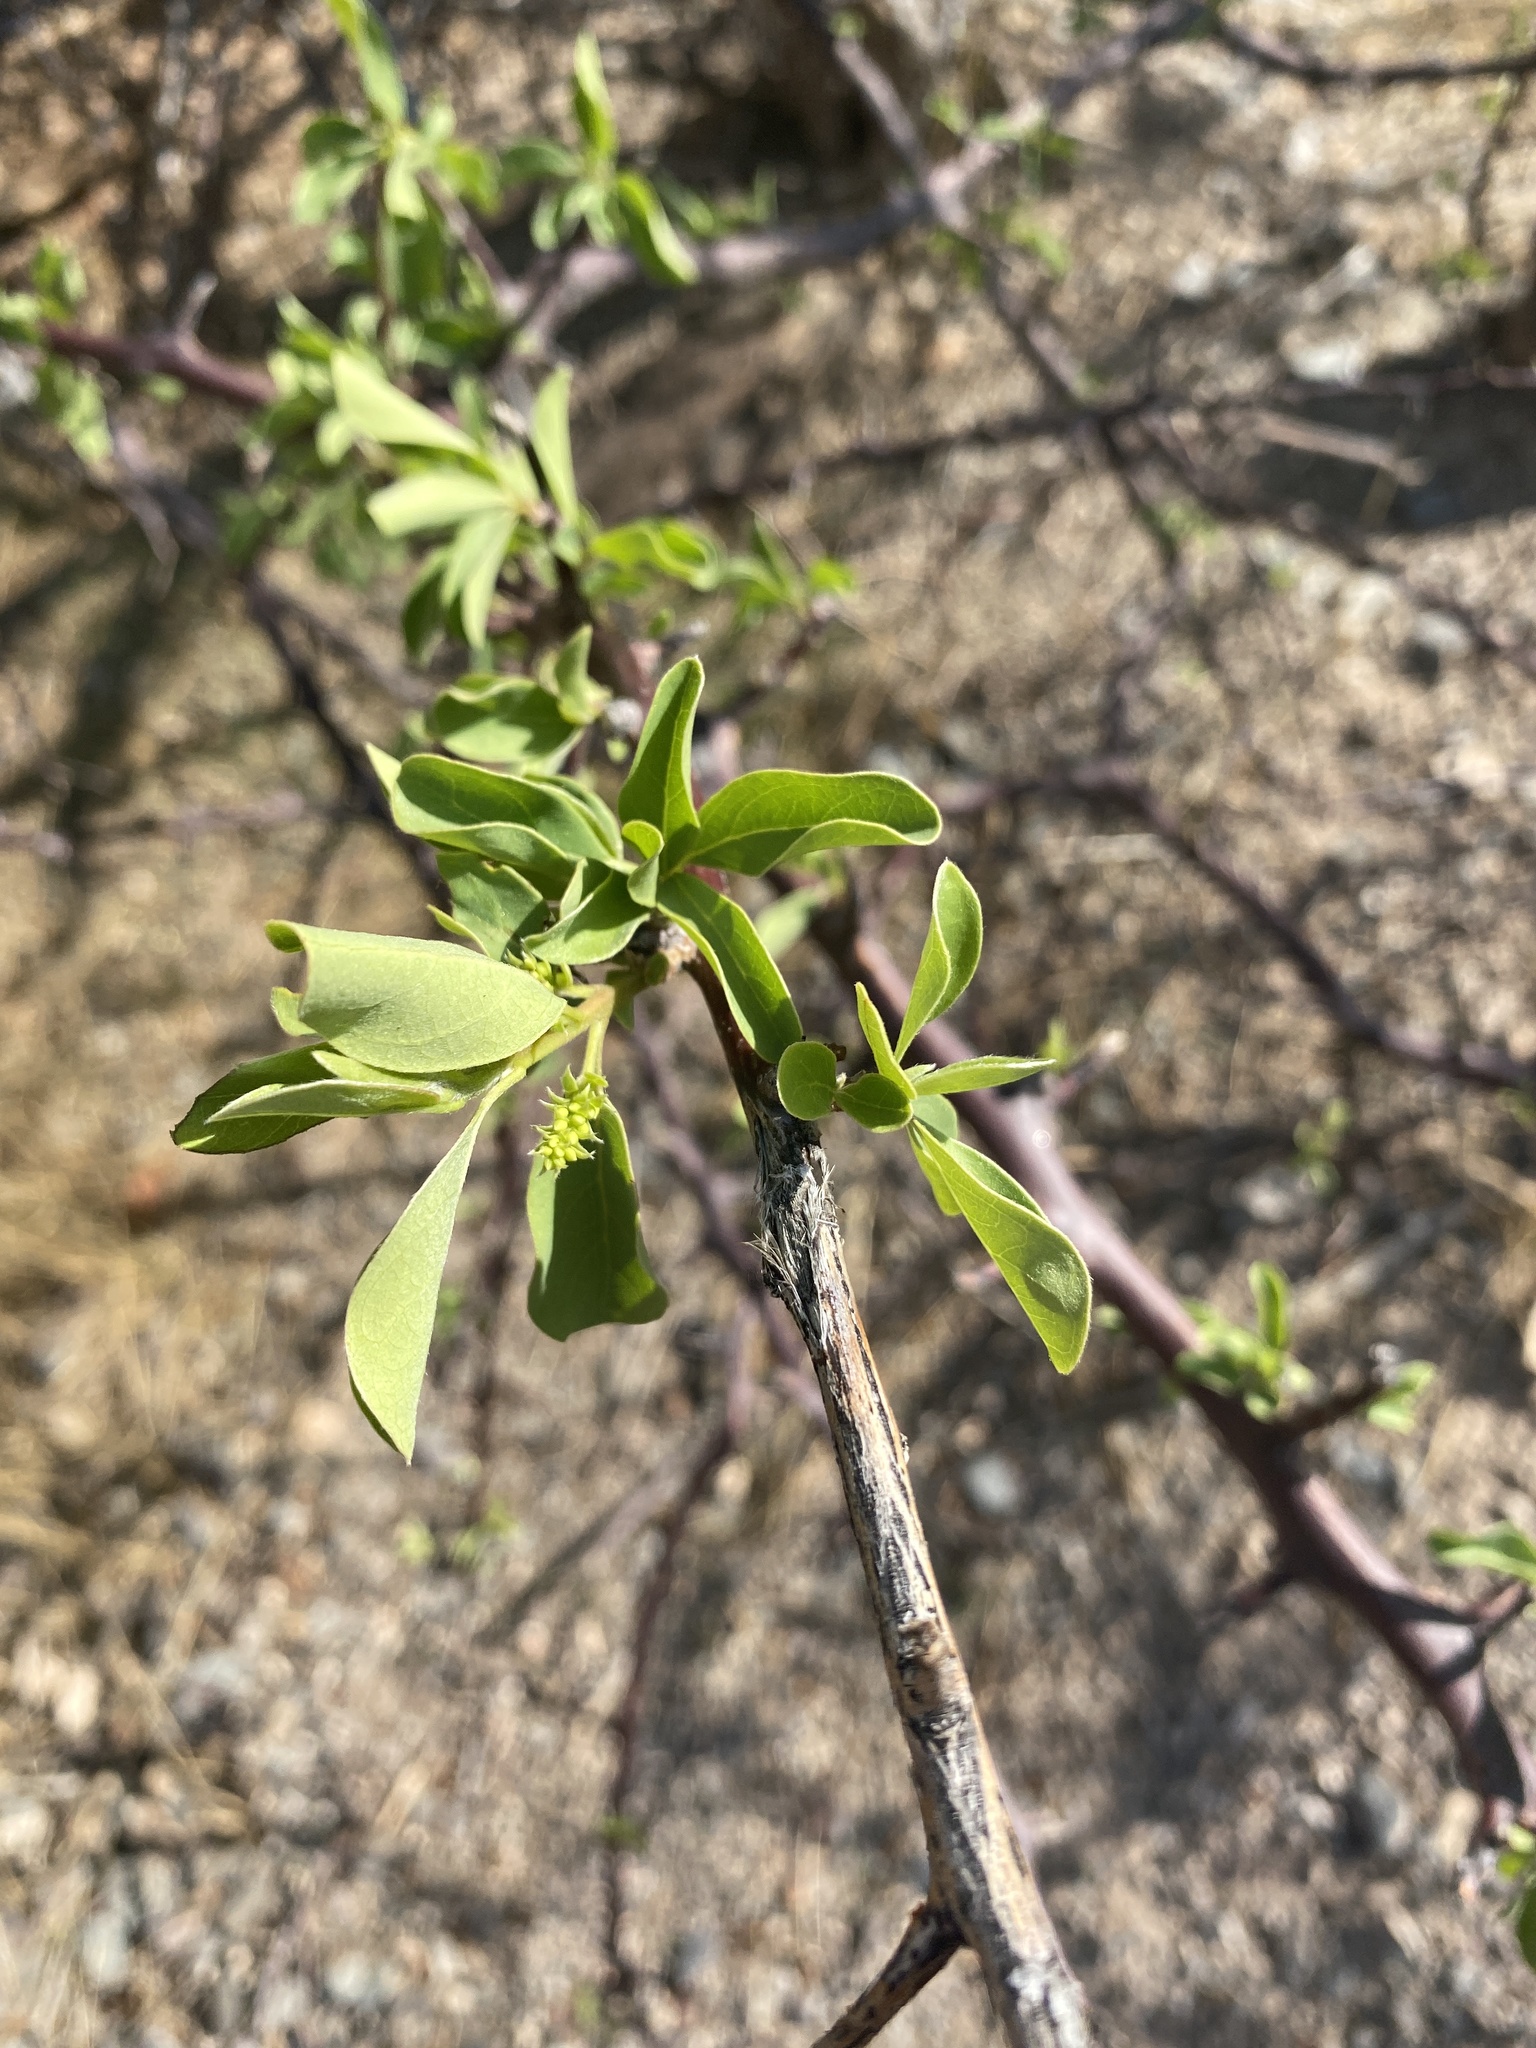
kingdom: Plantae
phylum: Tracheophyta
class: Magnoliopsida
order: Myrtales
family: Combretaceae
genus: Terminalia
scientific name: Terminalia prunioides
